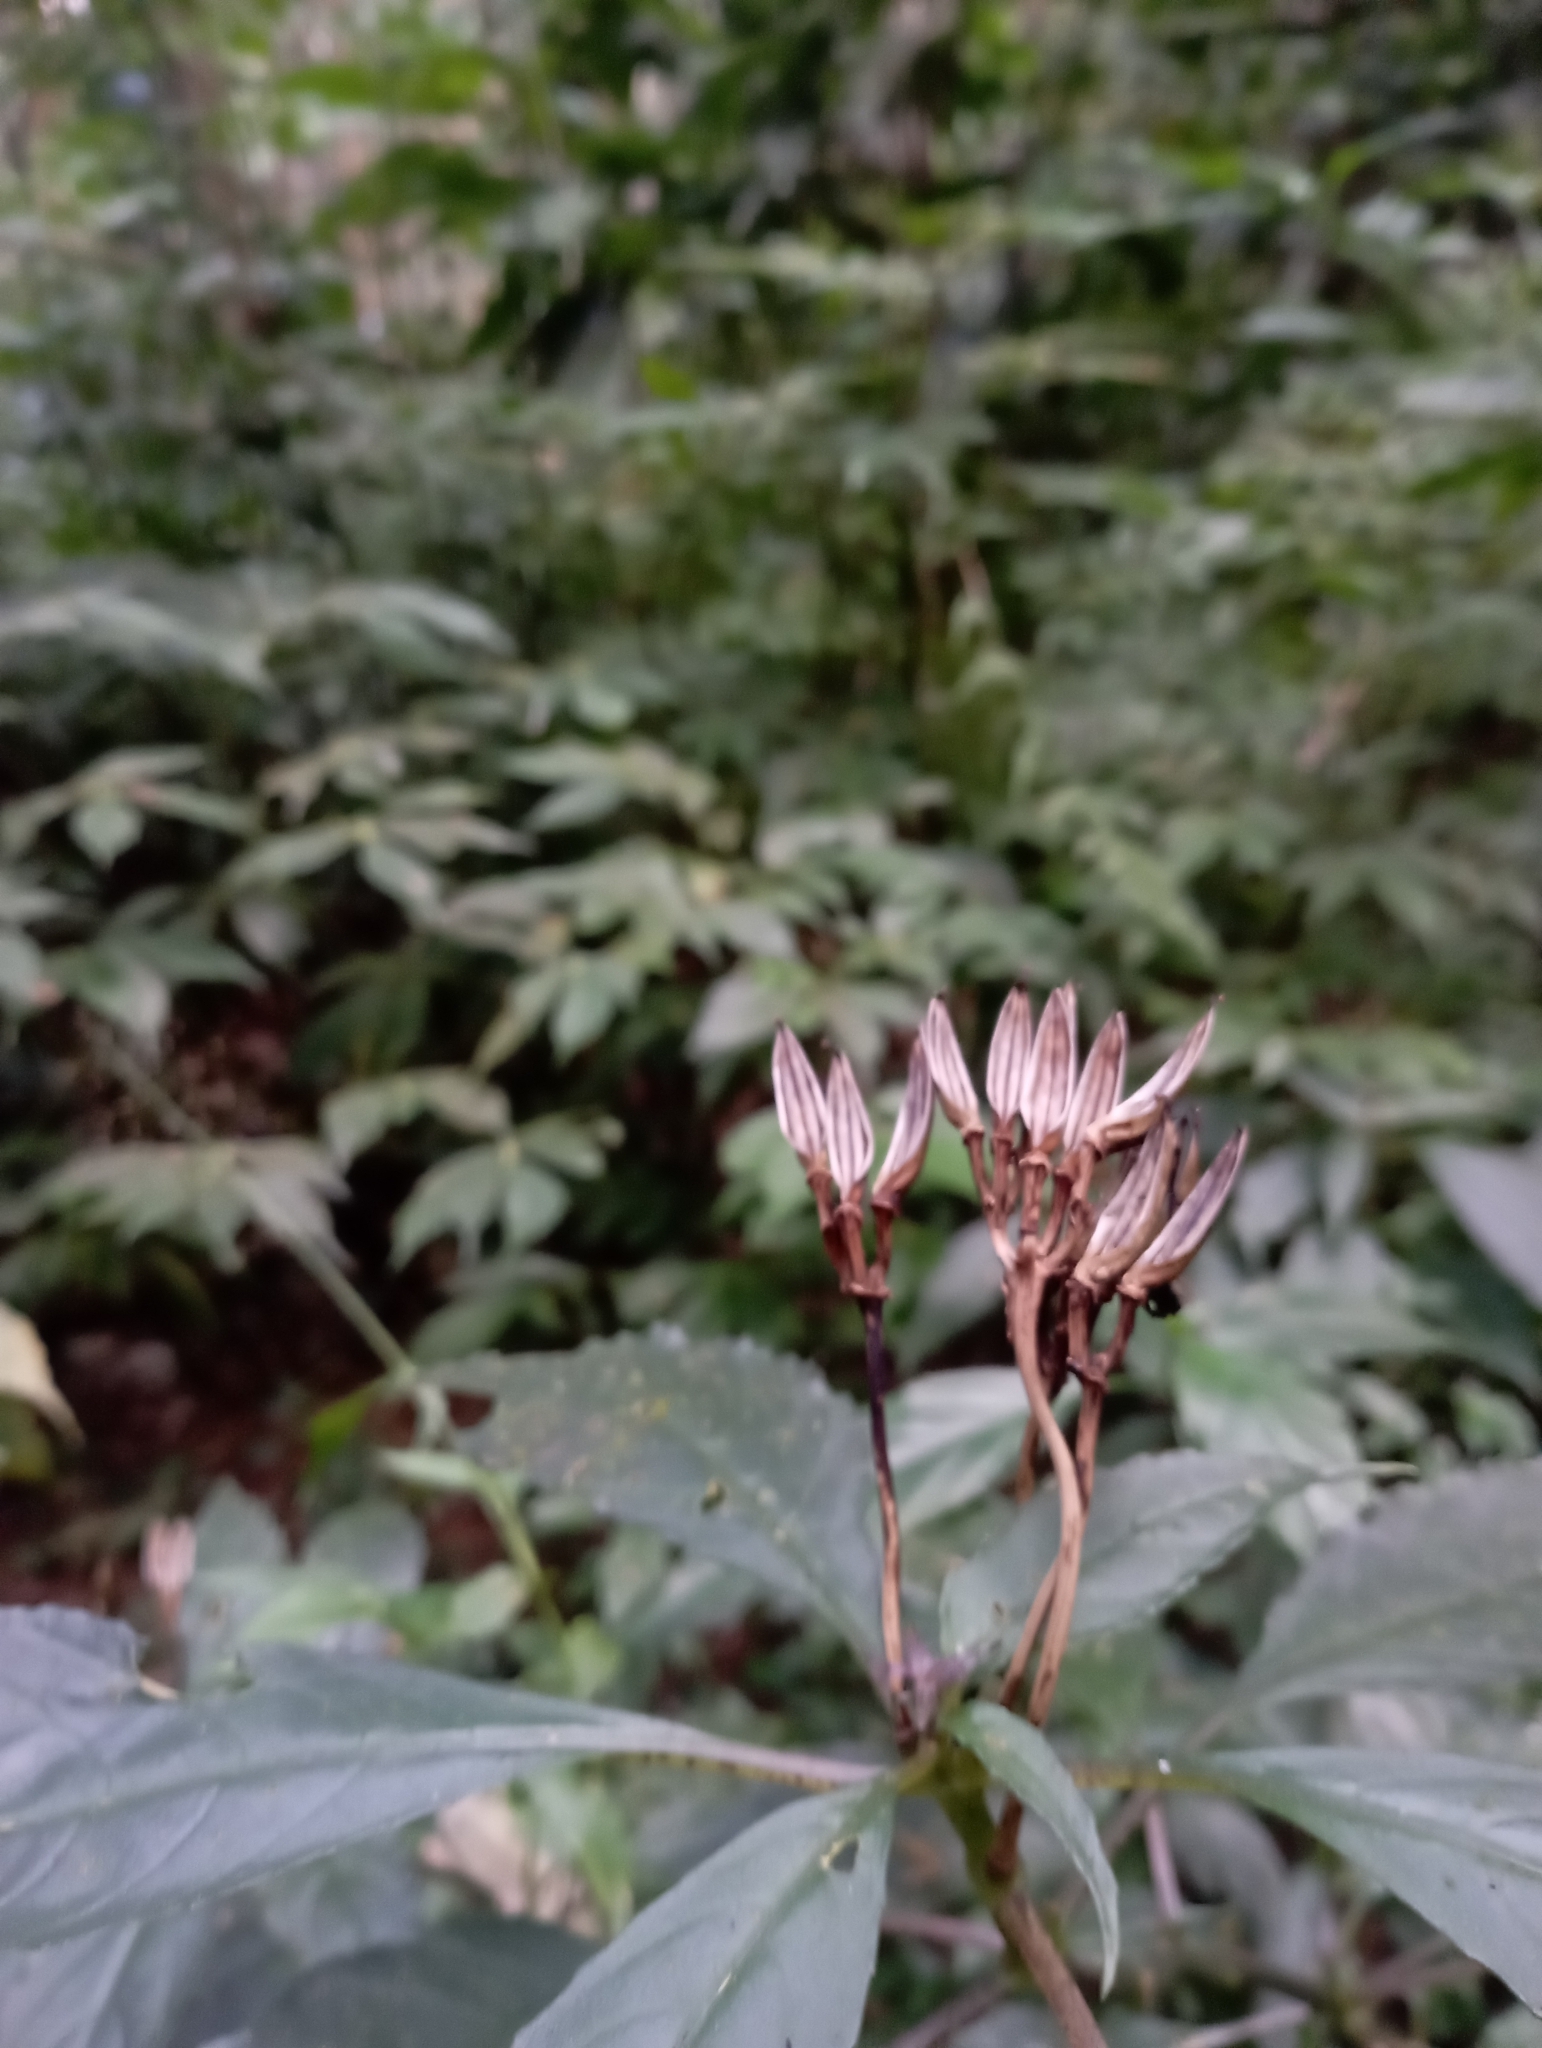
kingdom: Plantae
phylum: Tracheophyta
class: Magnoliopsida
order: Lamiales
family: Gesneriaceae
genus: Hemiboea
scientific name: Hemiboea bicornuta
